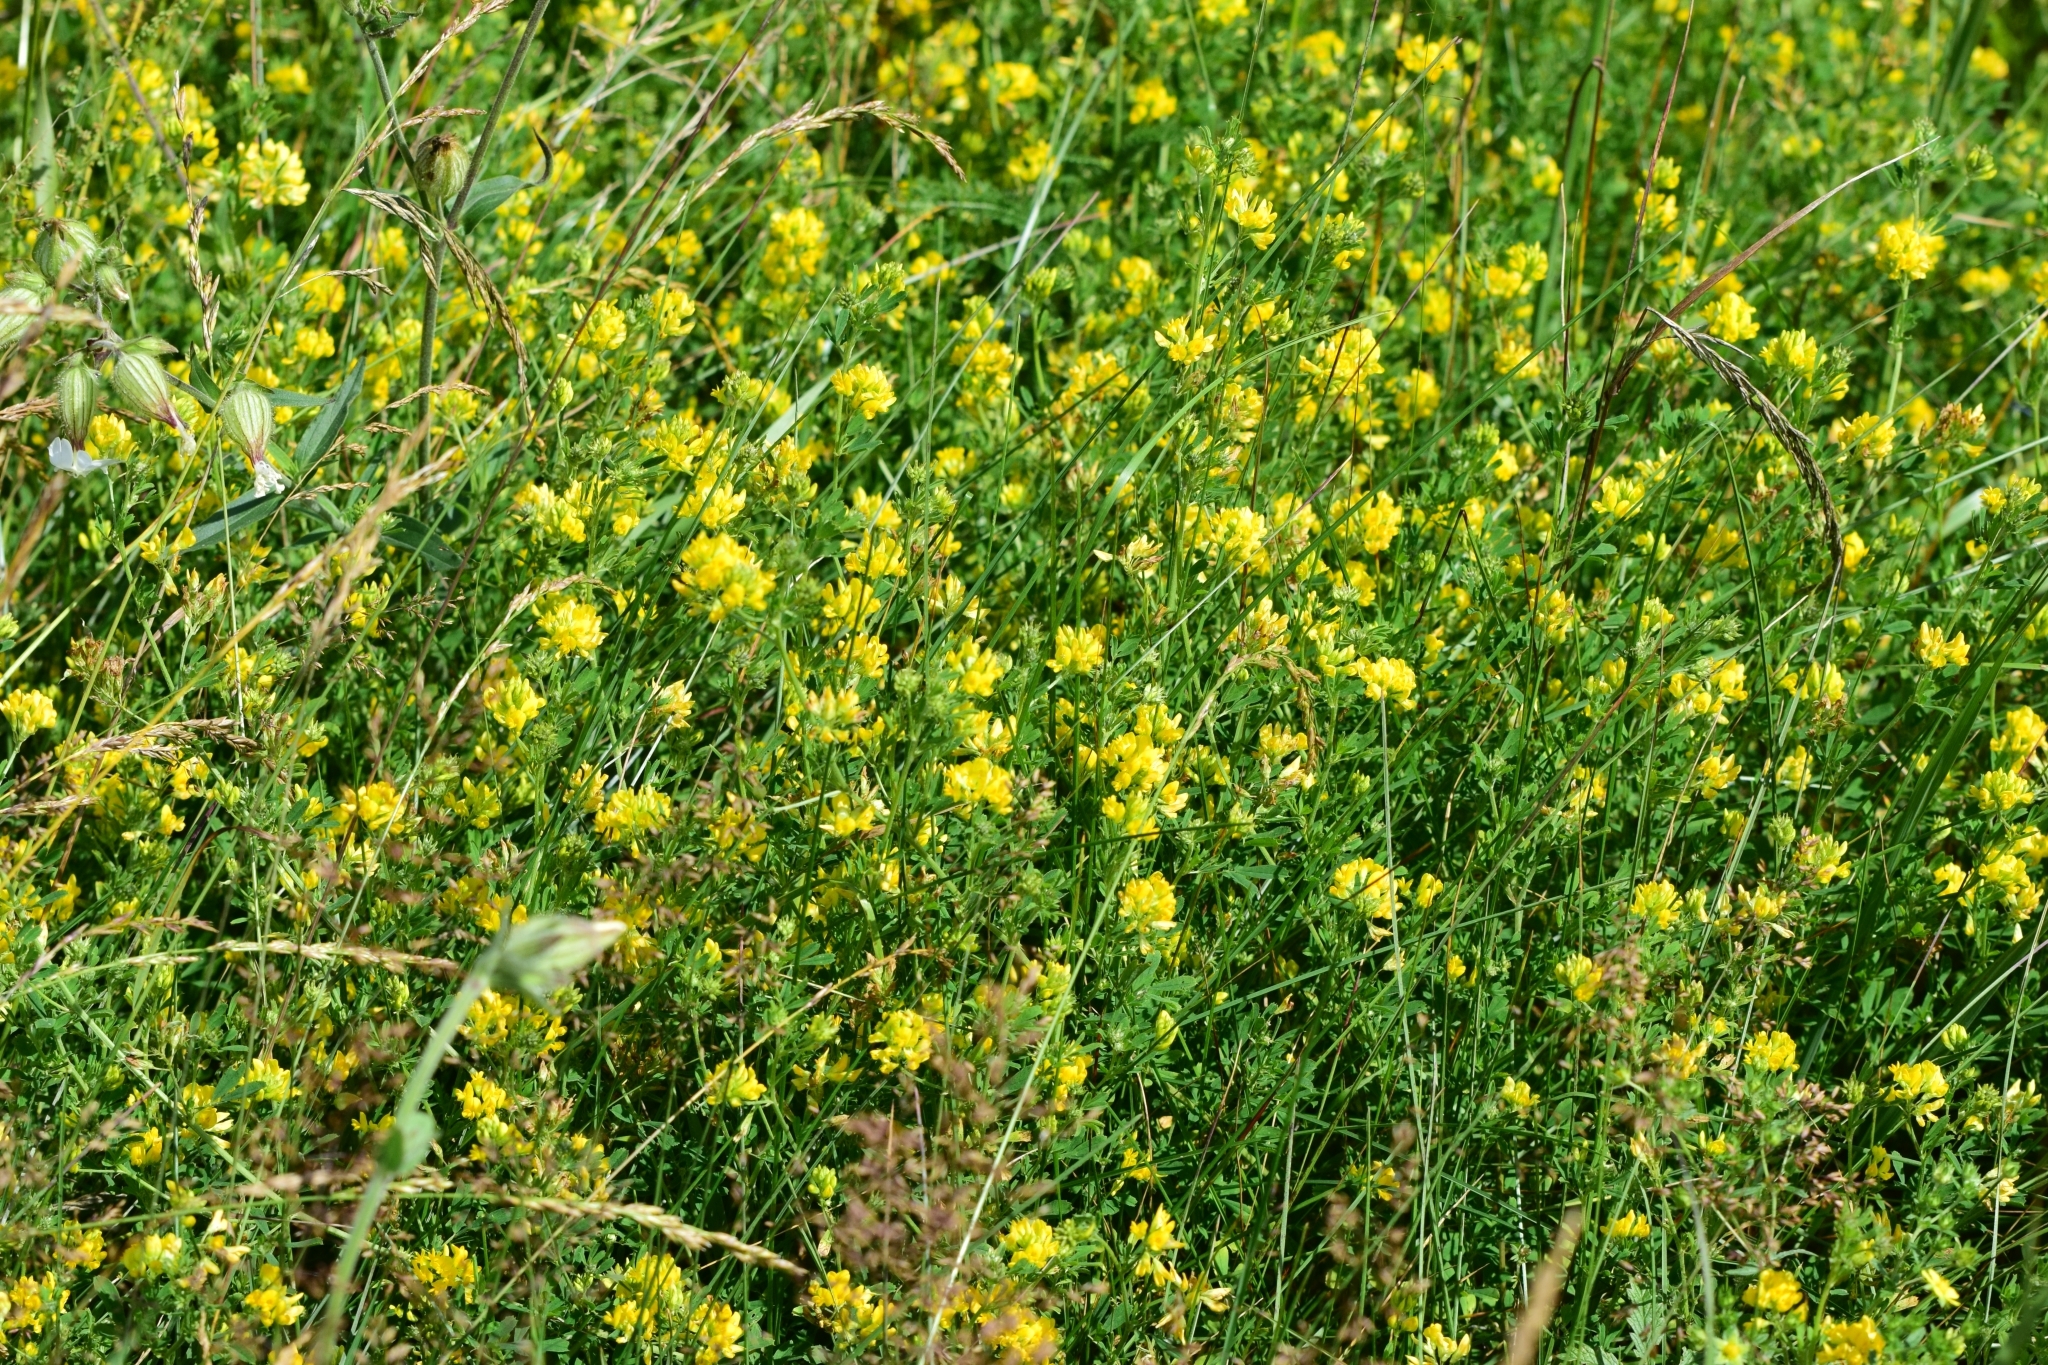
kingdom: Plantae
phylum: Tracheophyta
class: Magnoliopsida
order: Fabales
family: Fabaceae
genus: Medicago
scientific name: Medicago falcata
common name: Sickle medick
